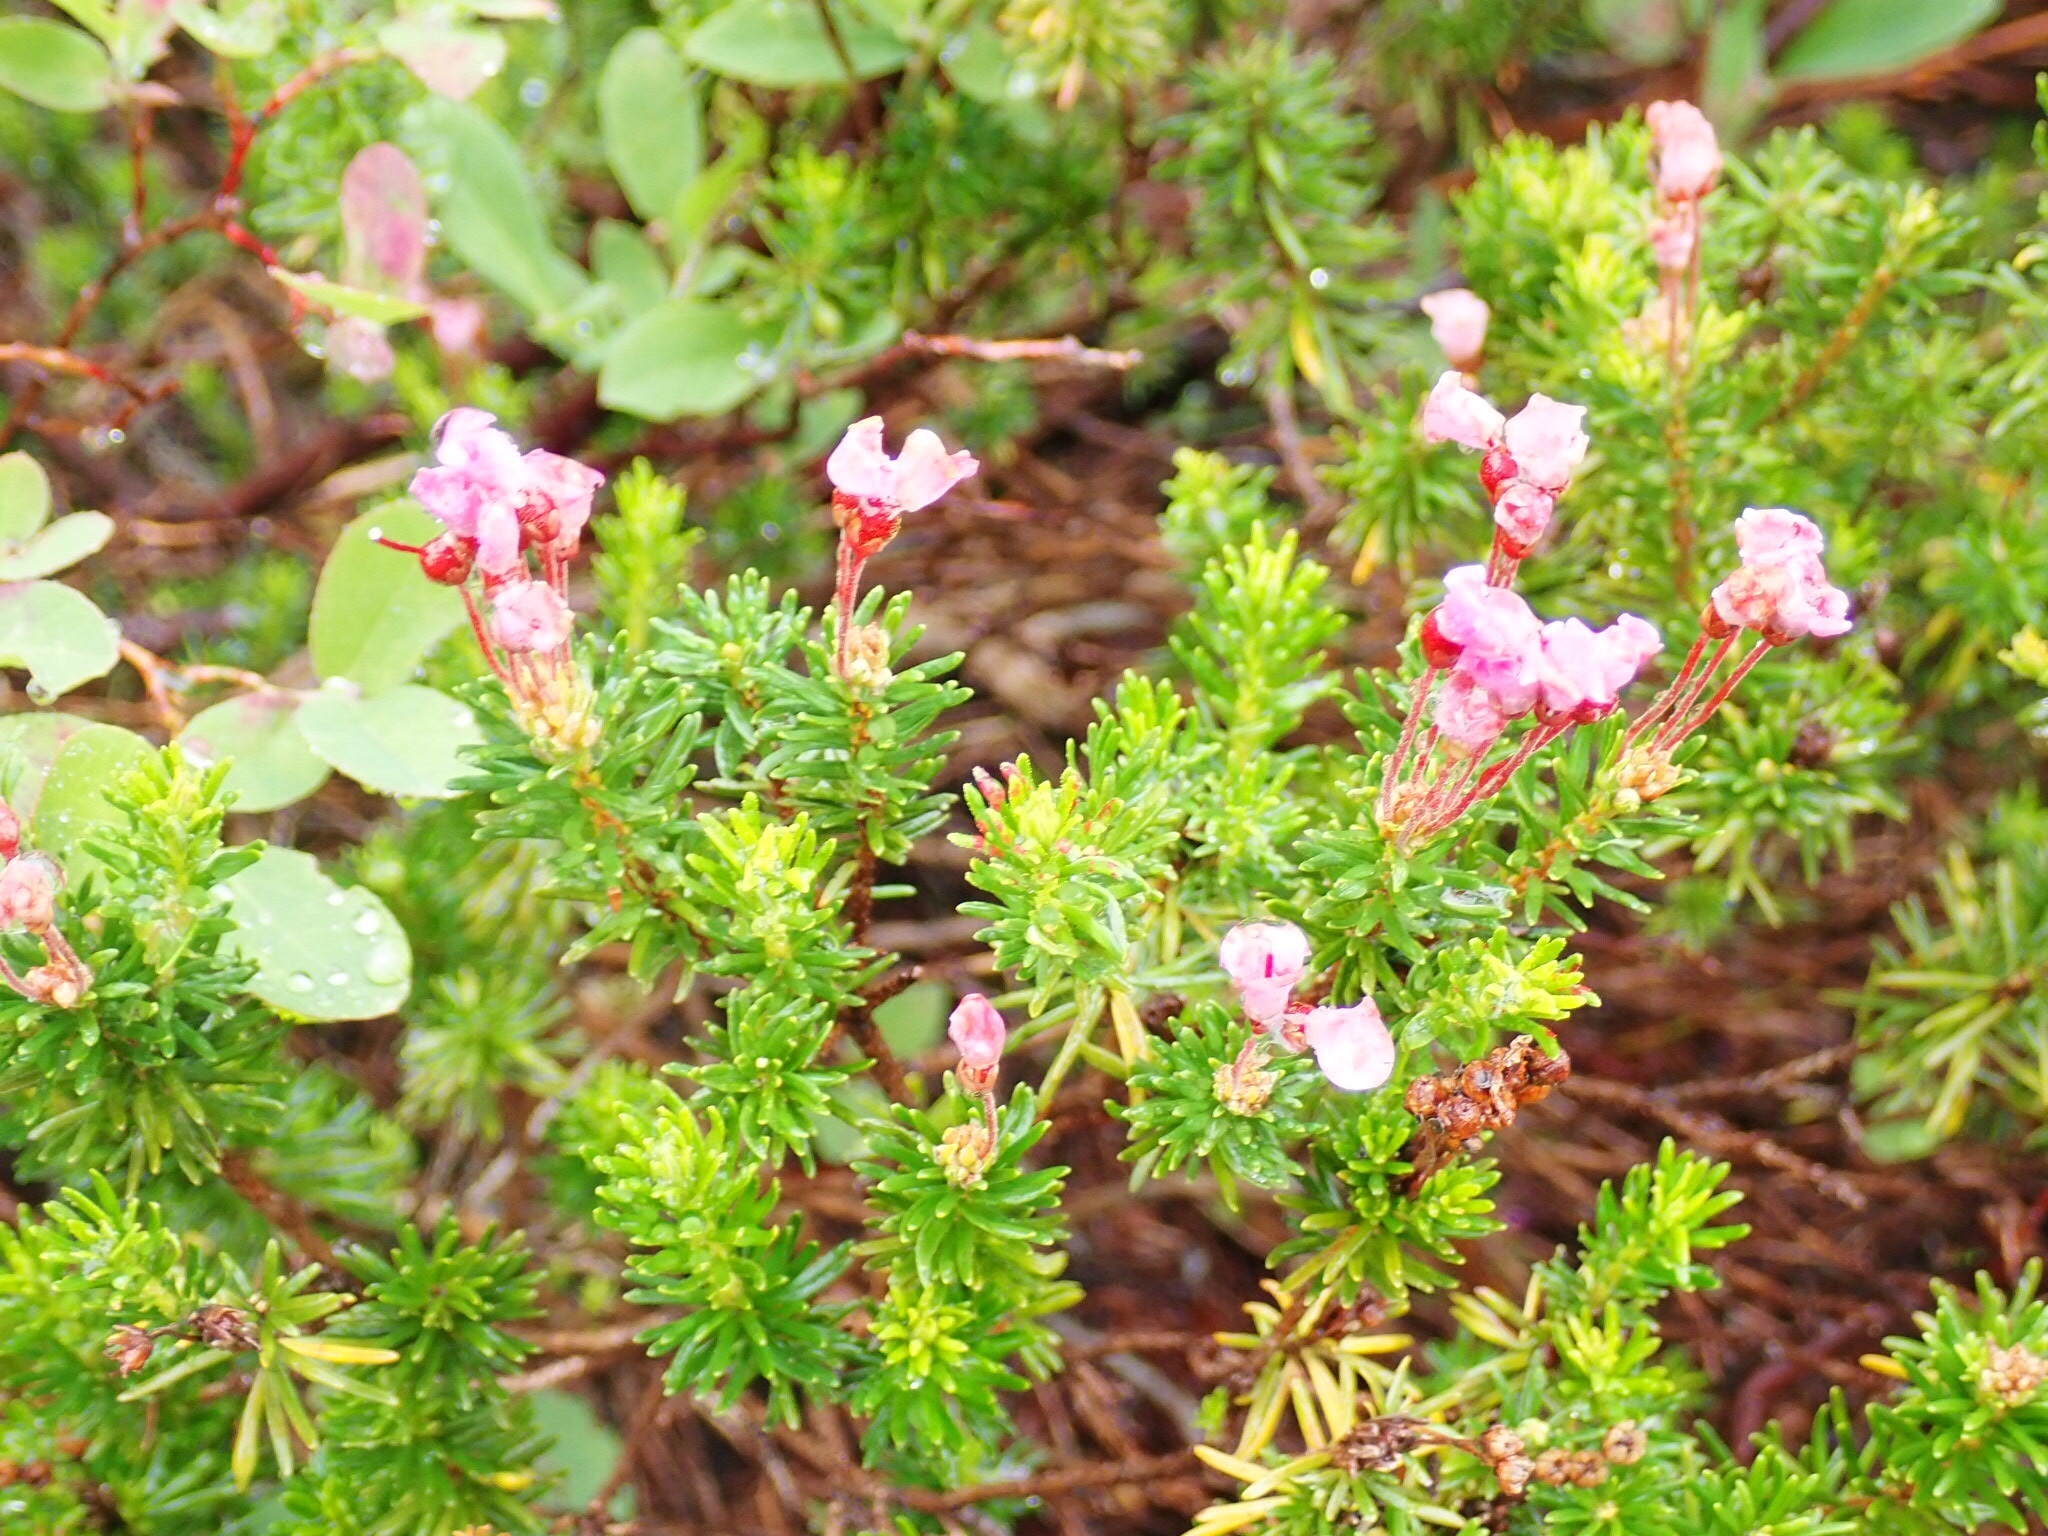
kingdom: Plantae
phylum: Tracheophyta
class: Magnoliopsida
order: Ericales
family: Ericaceae
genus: Phyllodoce
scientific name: Phyllodoce empetriformis
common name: Pink mountain heather
